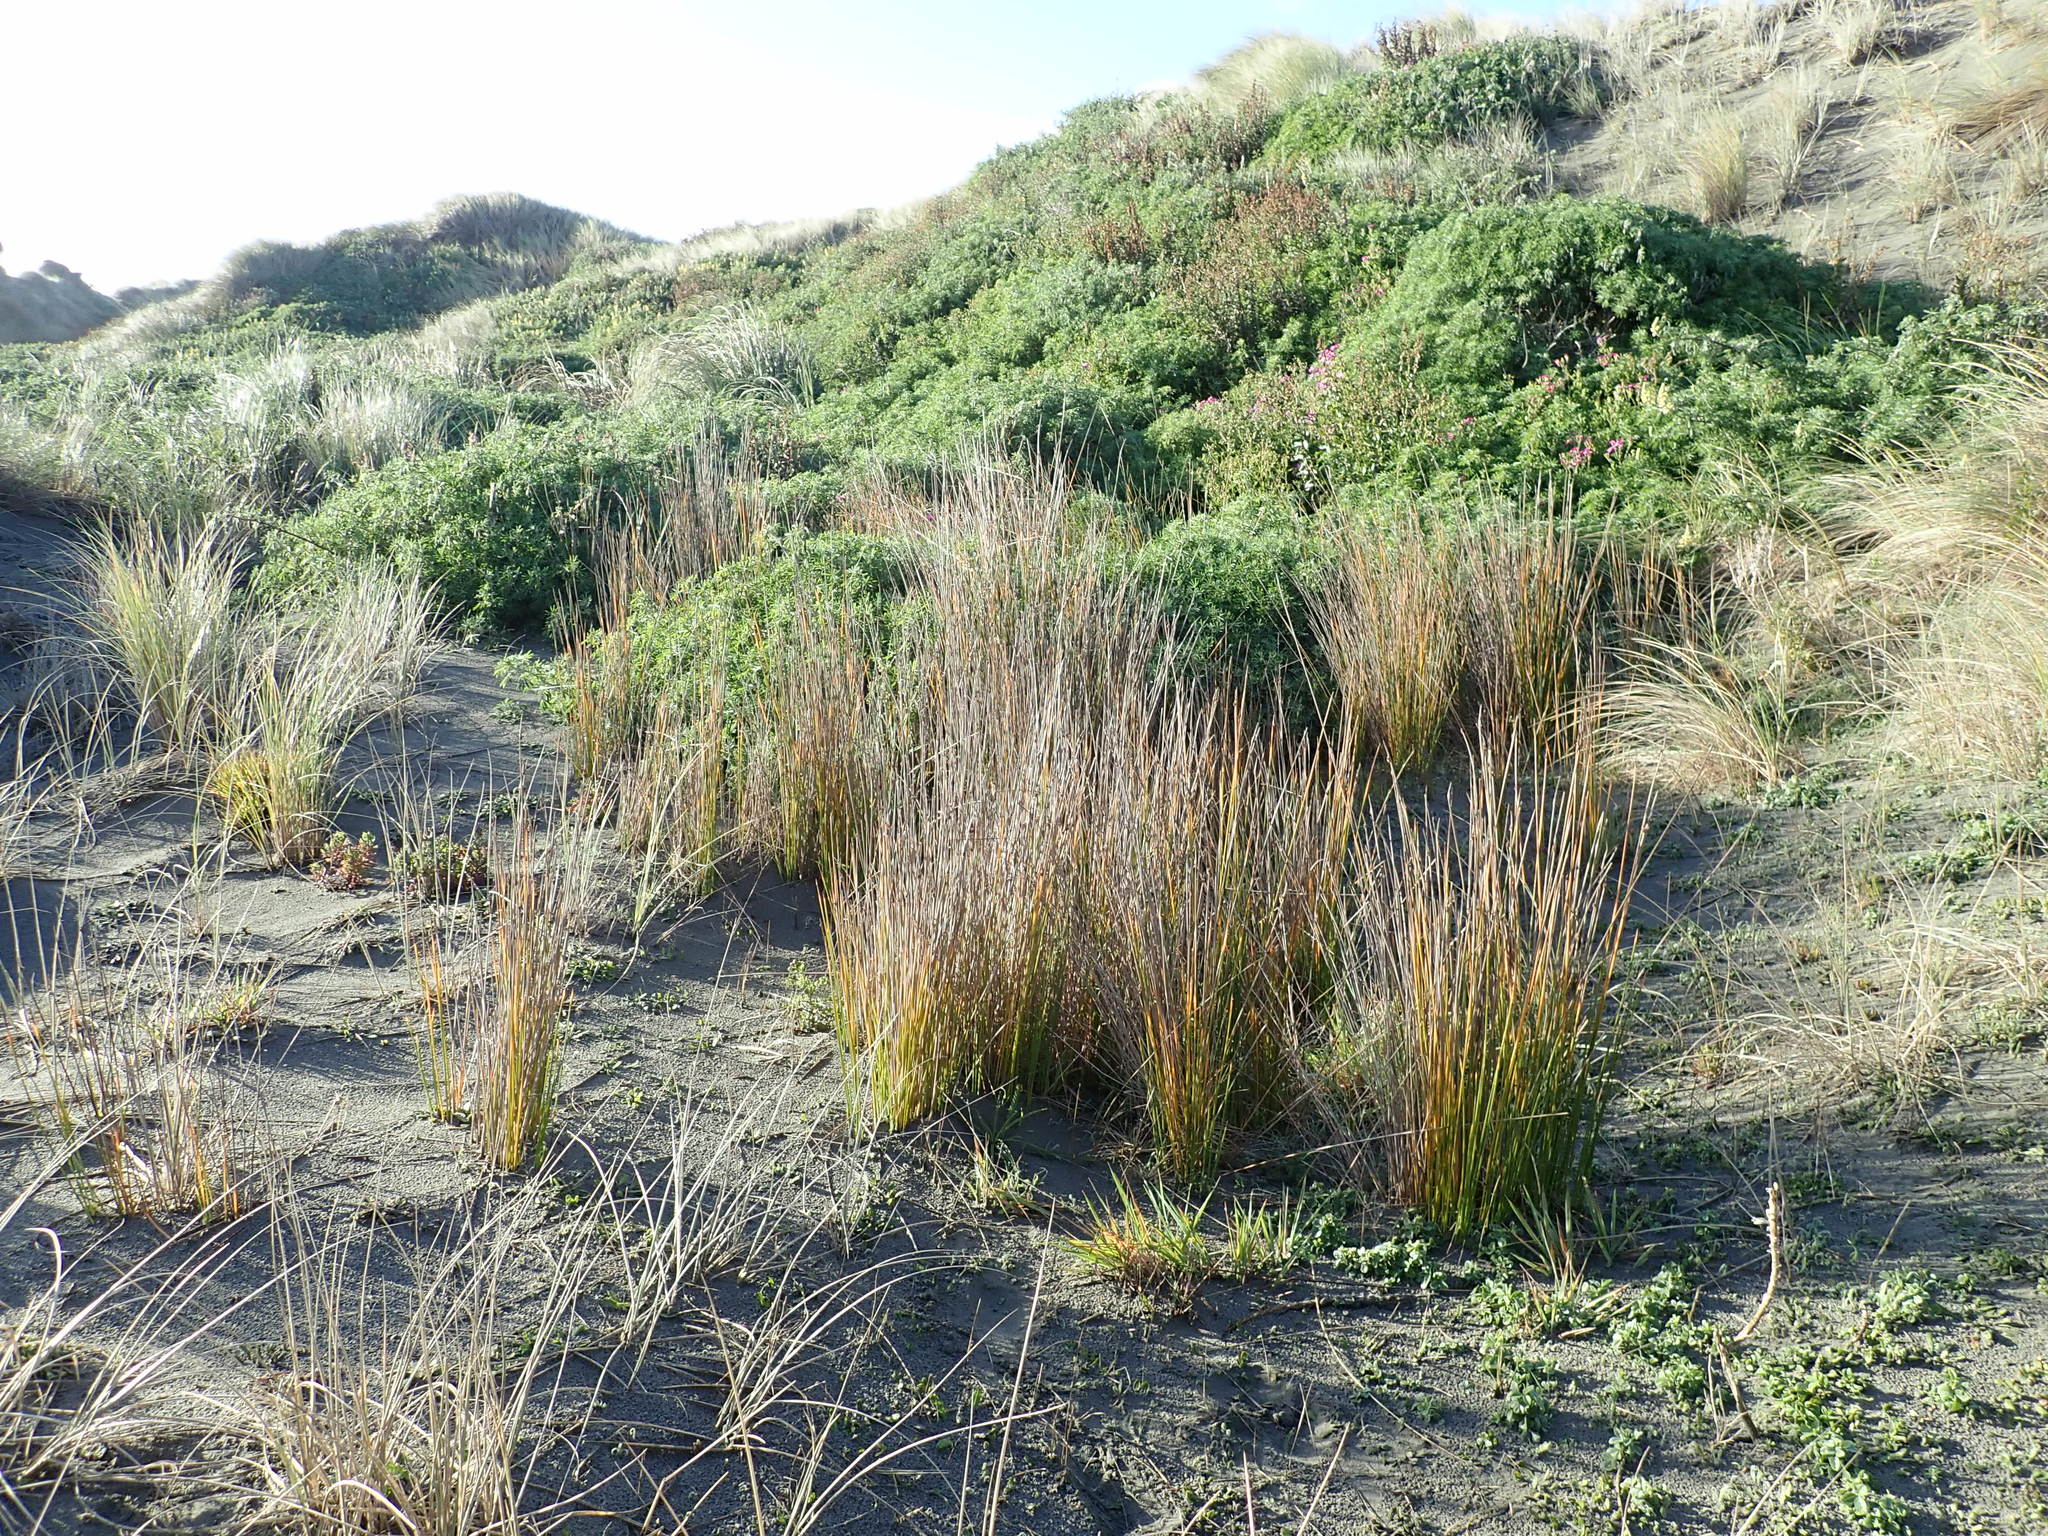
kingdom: Plantae
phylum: Tracheophyta
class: Liliopsida
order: Poales
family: Cyperaceae
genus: Ficinia
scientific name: Ficinia nodosa
